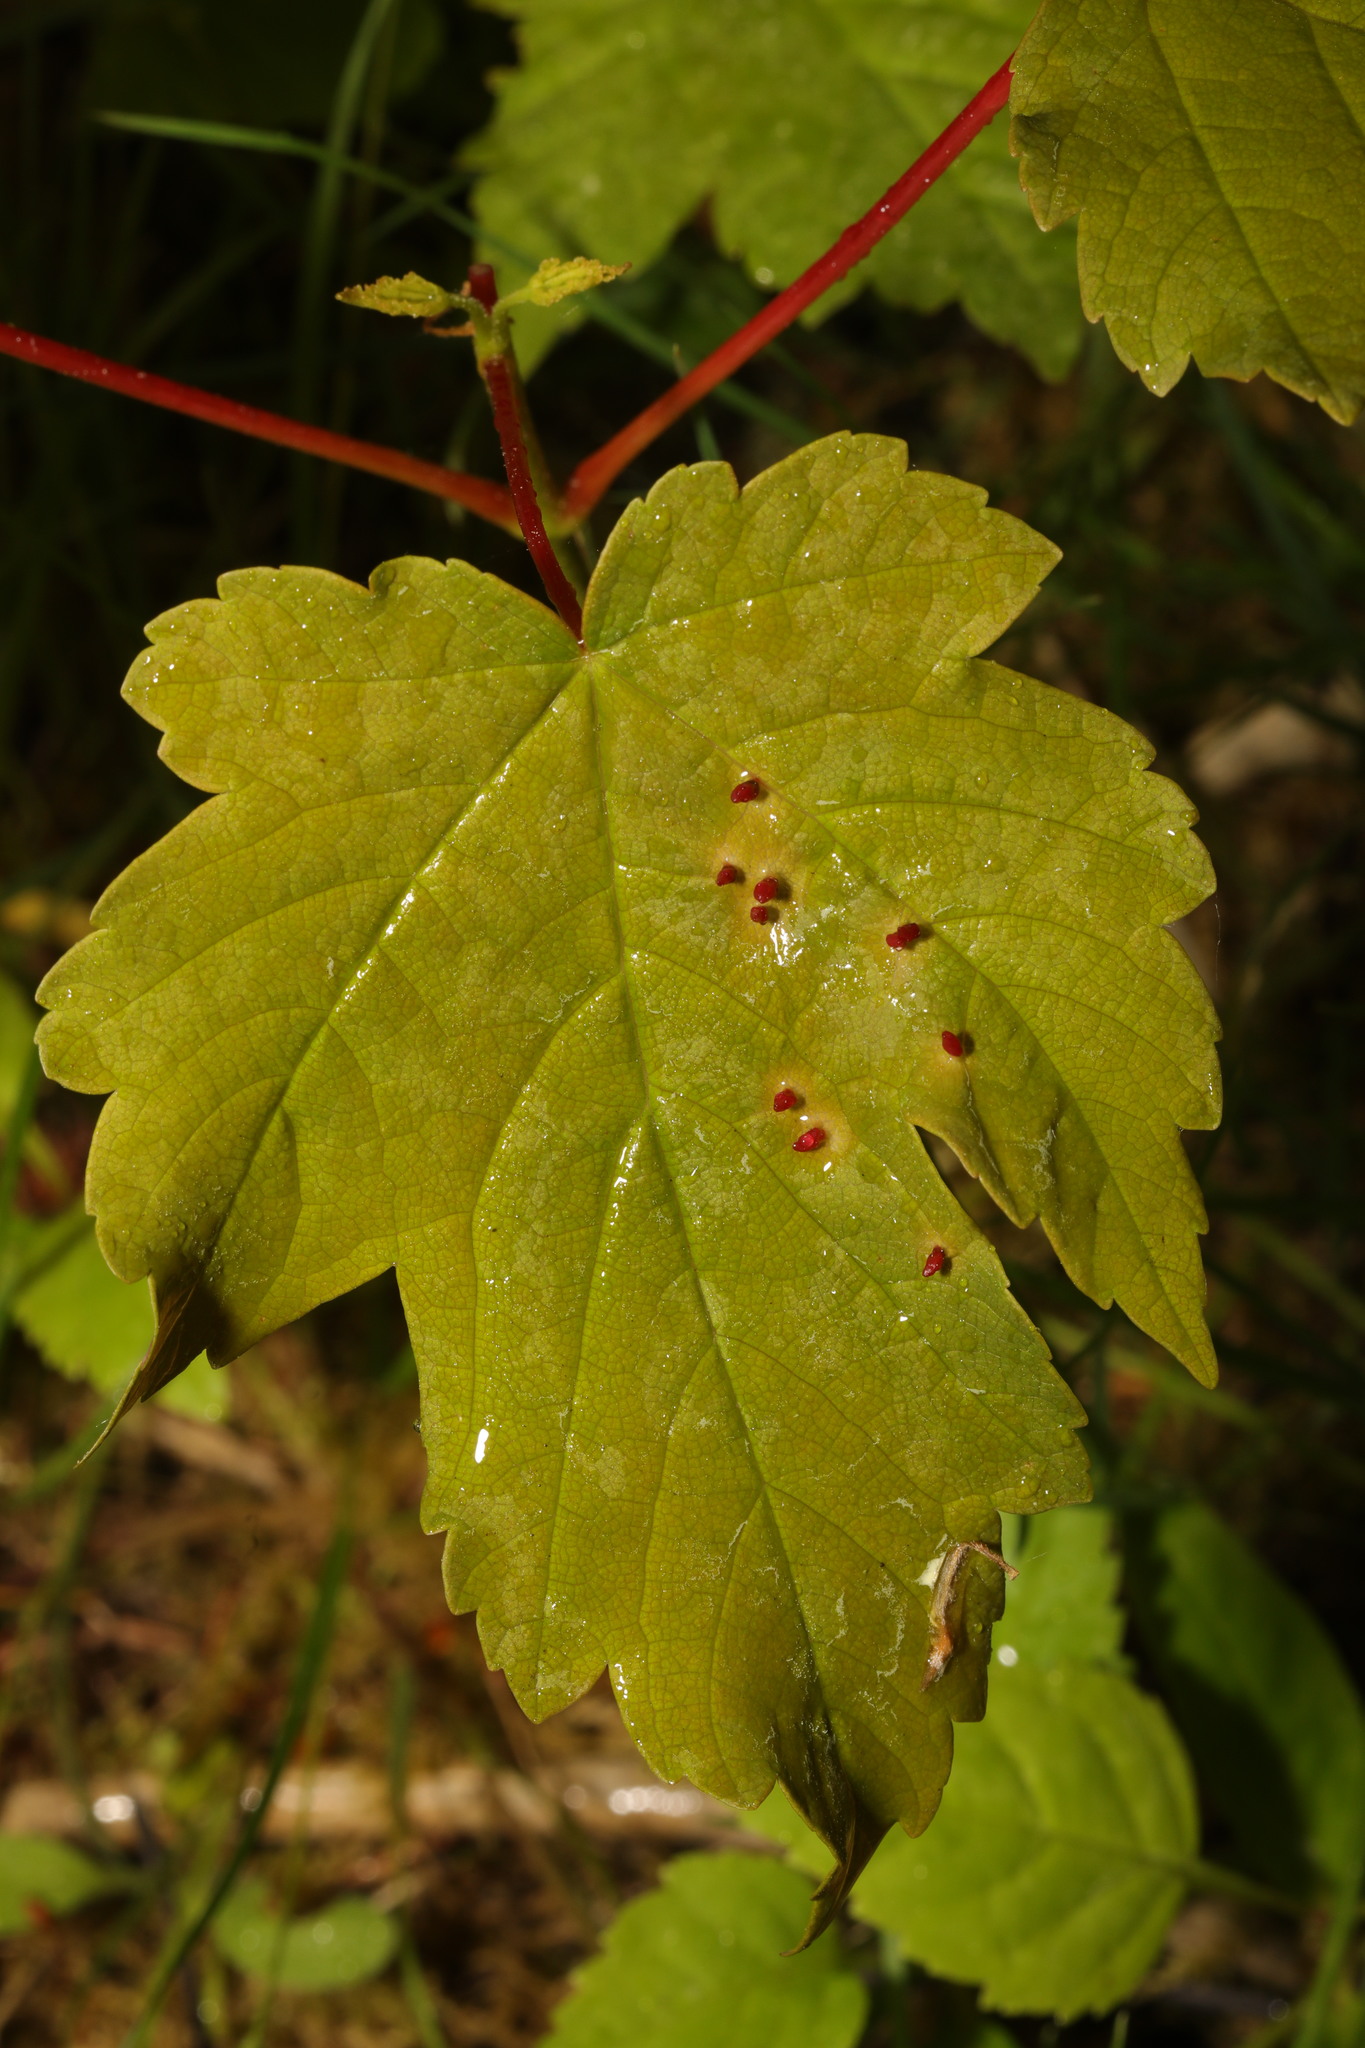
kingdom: Animalia
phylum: Arthropoda
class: Arachnida
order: Trombidiformes
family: Eriophyidae
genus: Aceria
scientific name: Aceria cephaloneus
